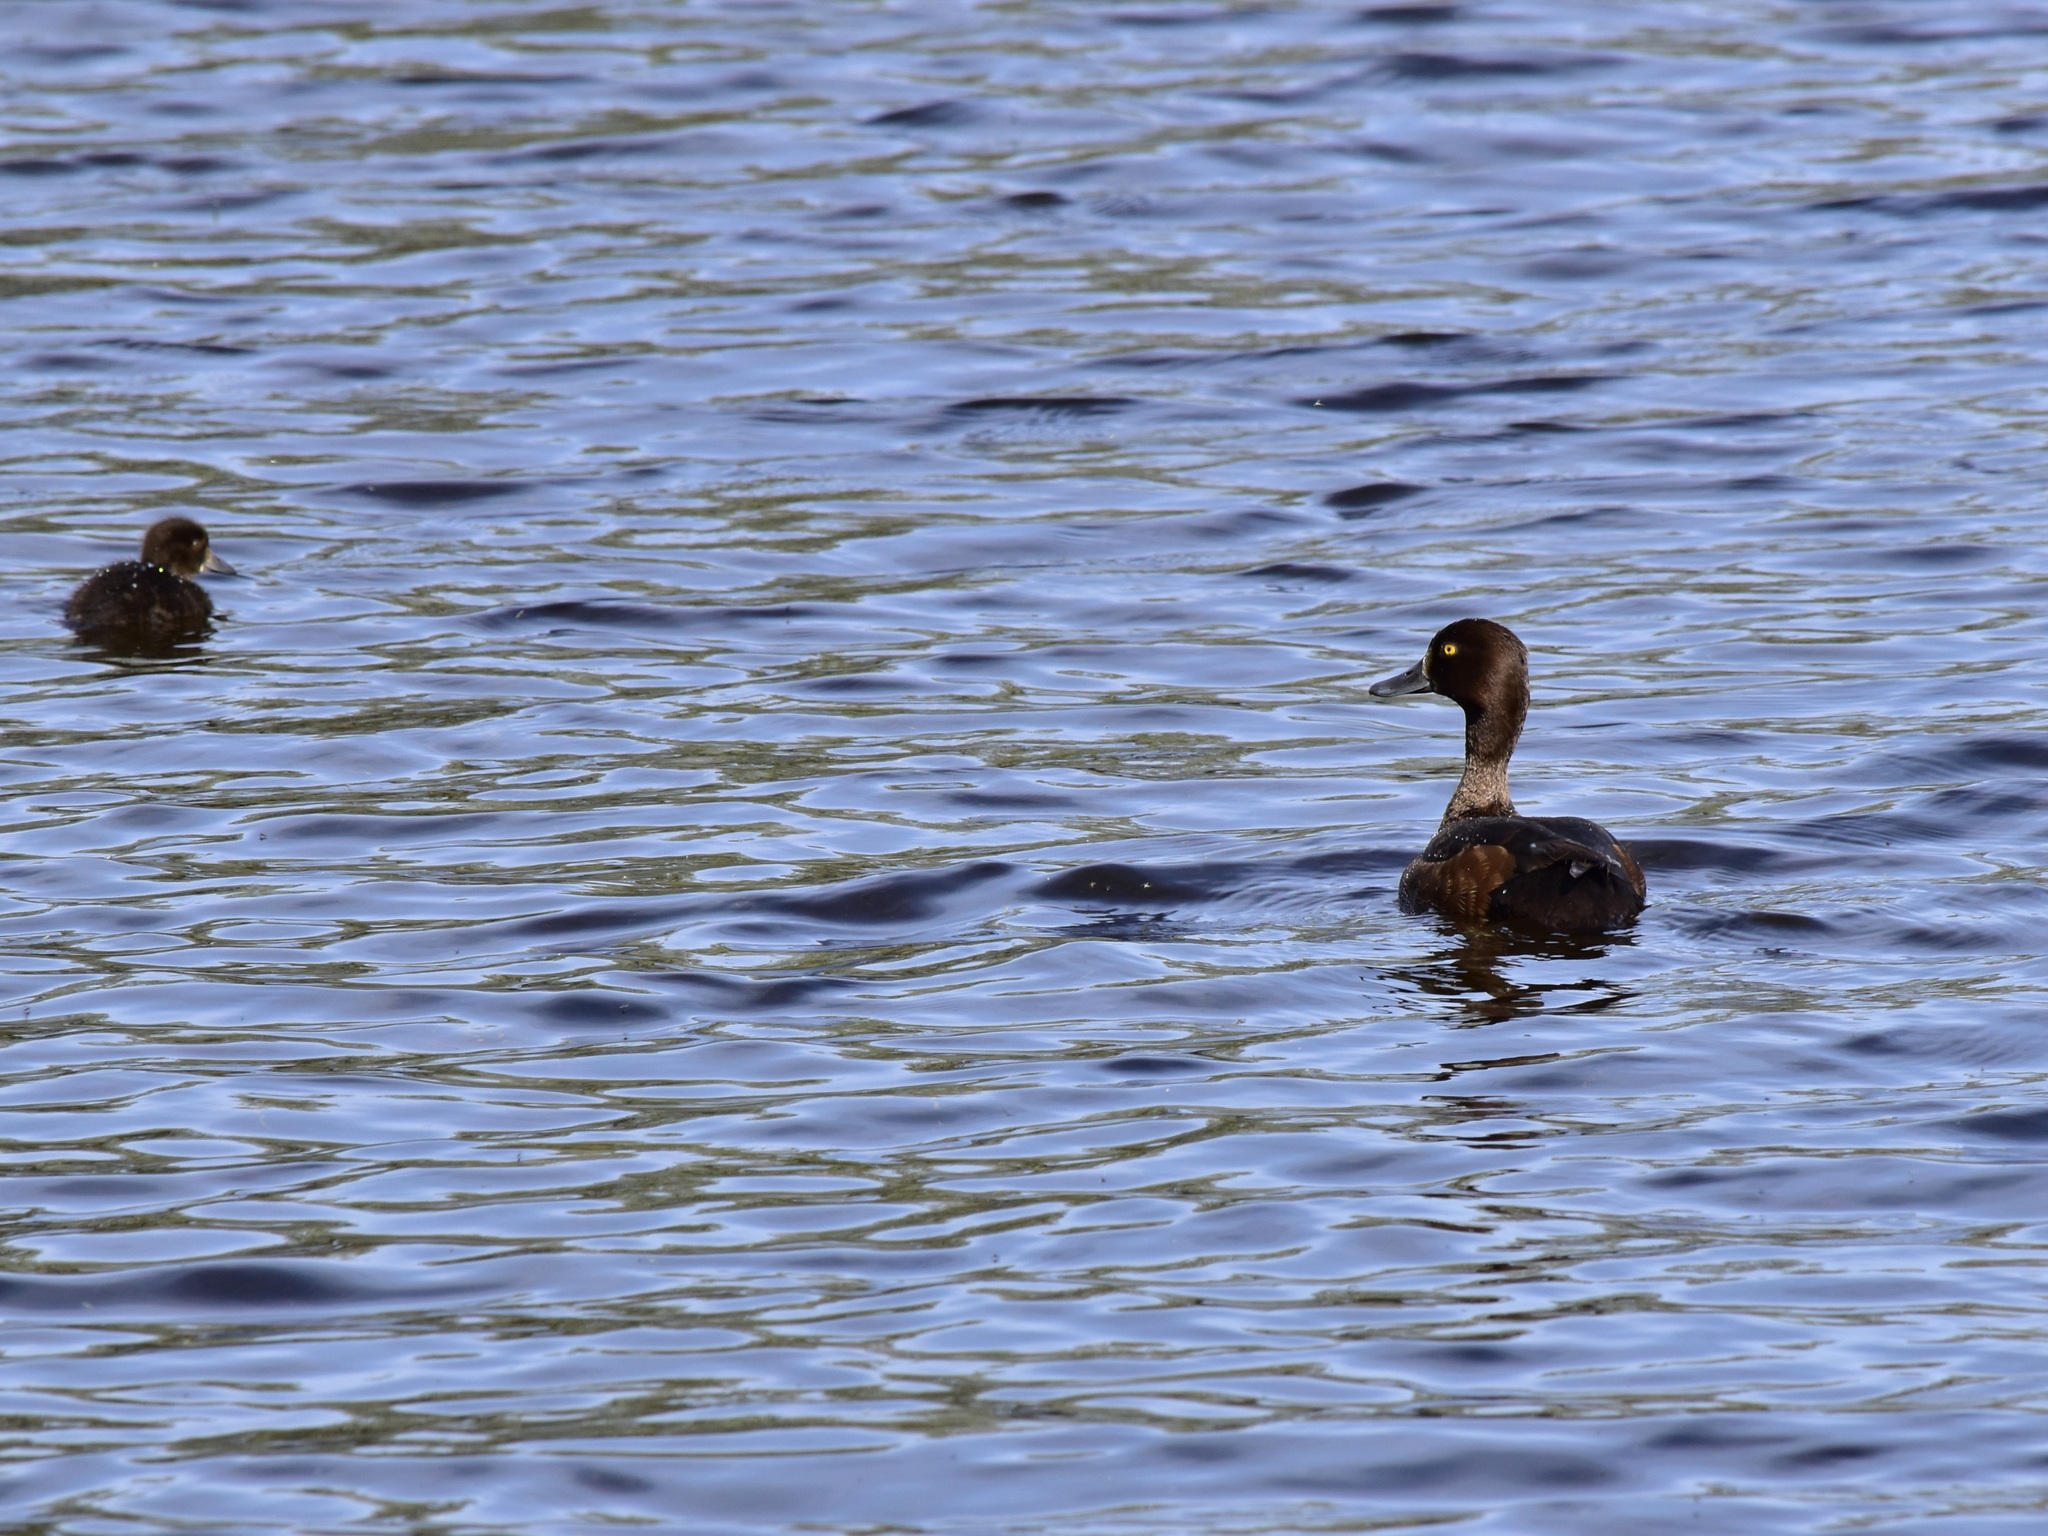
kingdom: Animalia
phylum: Chordata
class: Aves
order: Anseriformes
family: Anatidae
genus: Aythya
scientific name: Aythya fuligula
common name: Tufted duck
